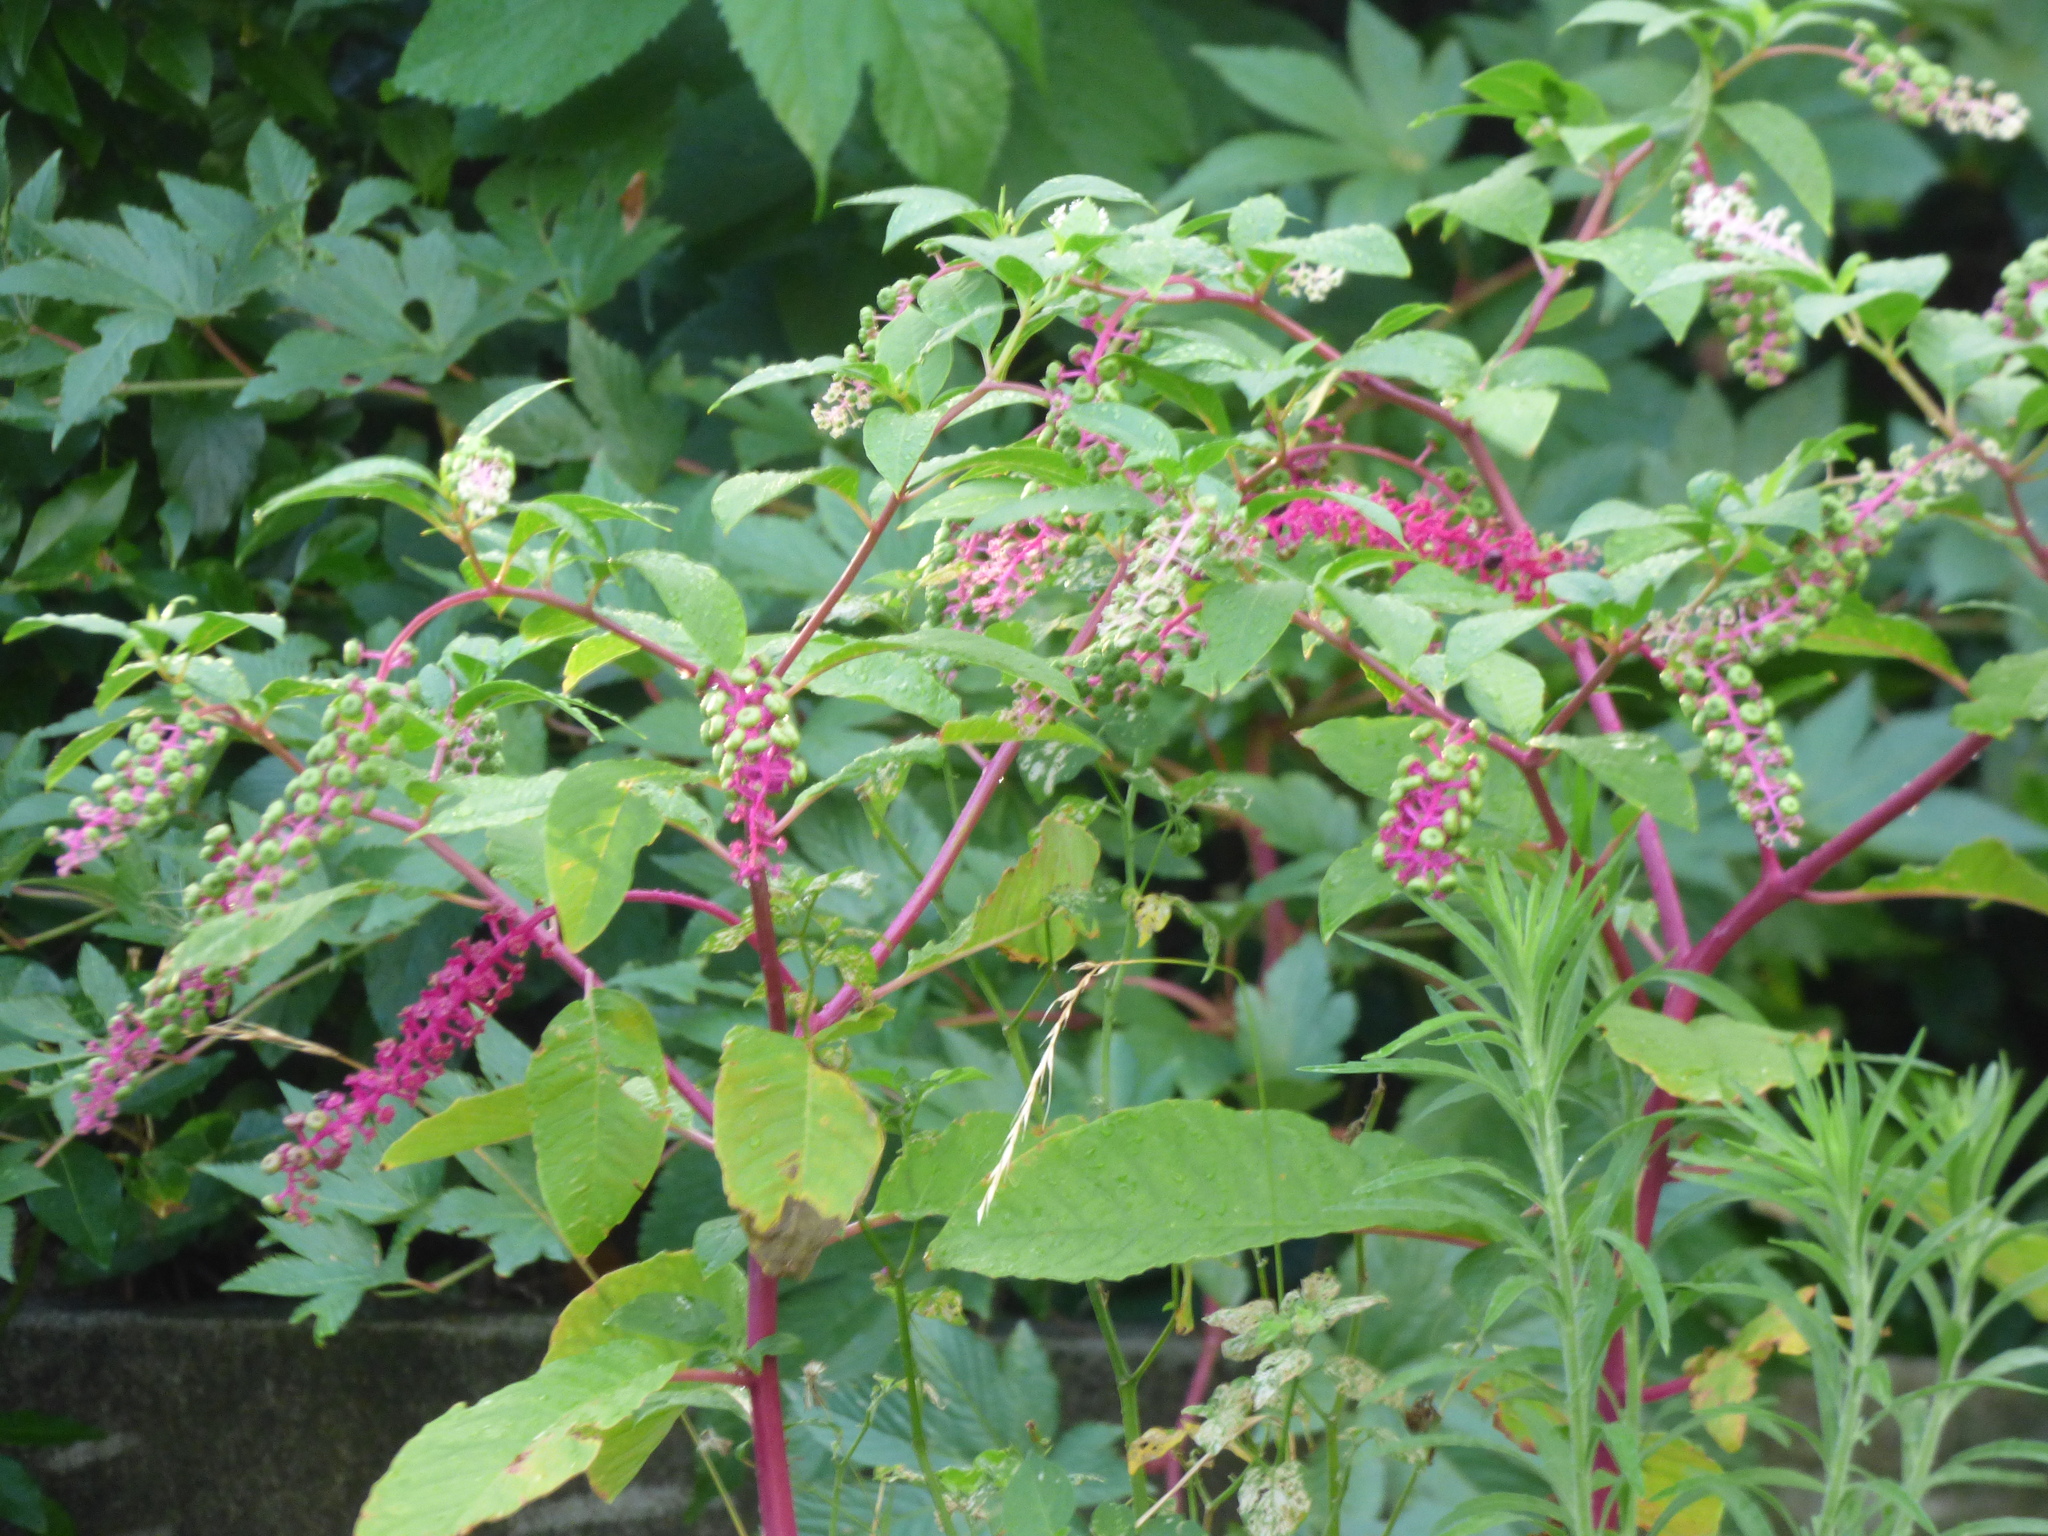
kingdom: Plantae
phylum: Tracheophyta
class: Magnoliopsida
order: Caryophyllales
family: Phytolaccaceae
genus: Phytolacca
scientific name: Phytolacca americana
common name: American pokeweed
